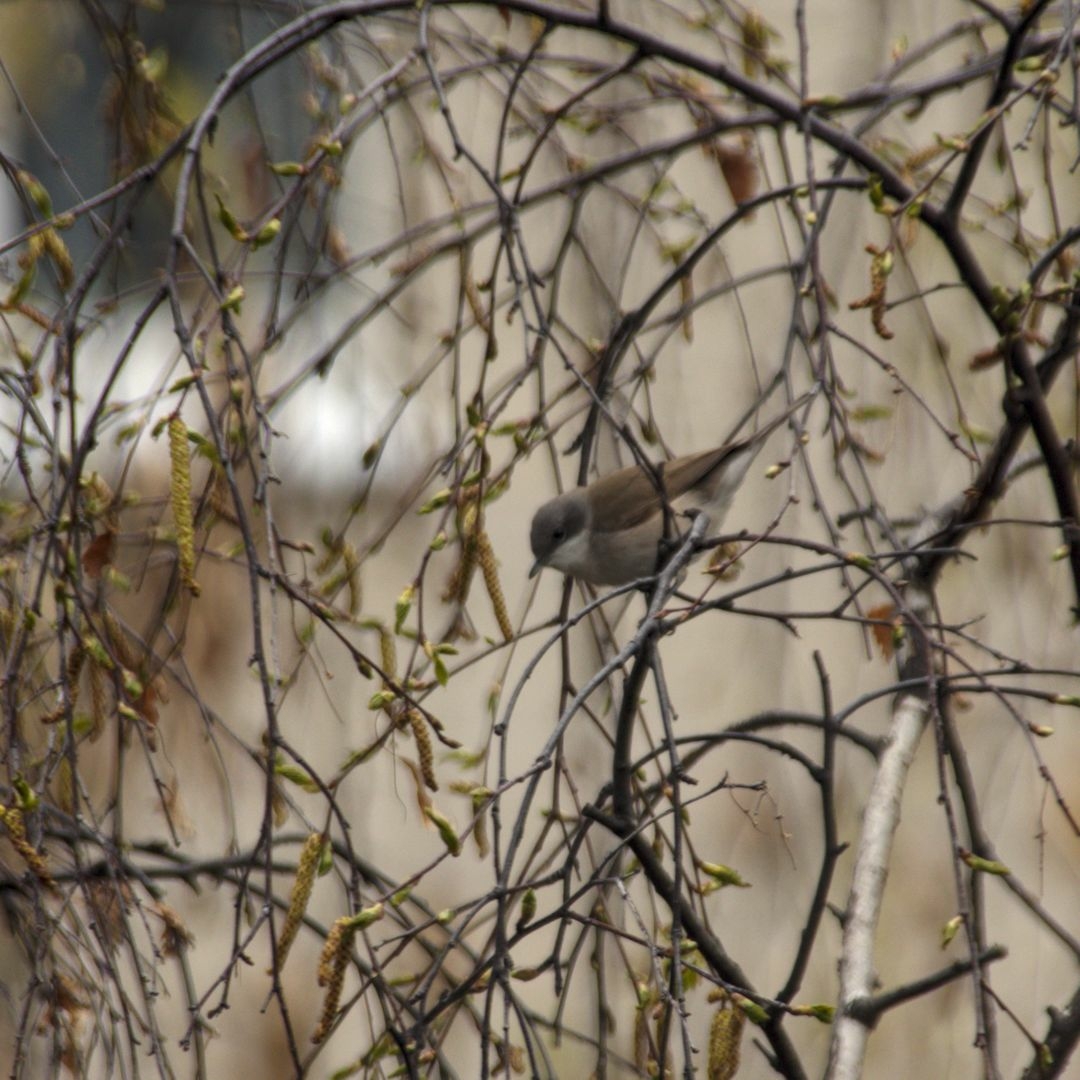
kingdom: Animalia
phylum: Chordata
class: Aves
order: Passeriformes
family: Sylviidae
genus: Sylvia
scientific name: Sylvia curruca
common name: Lesser whitethroat
